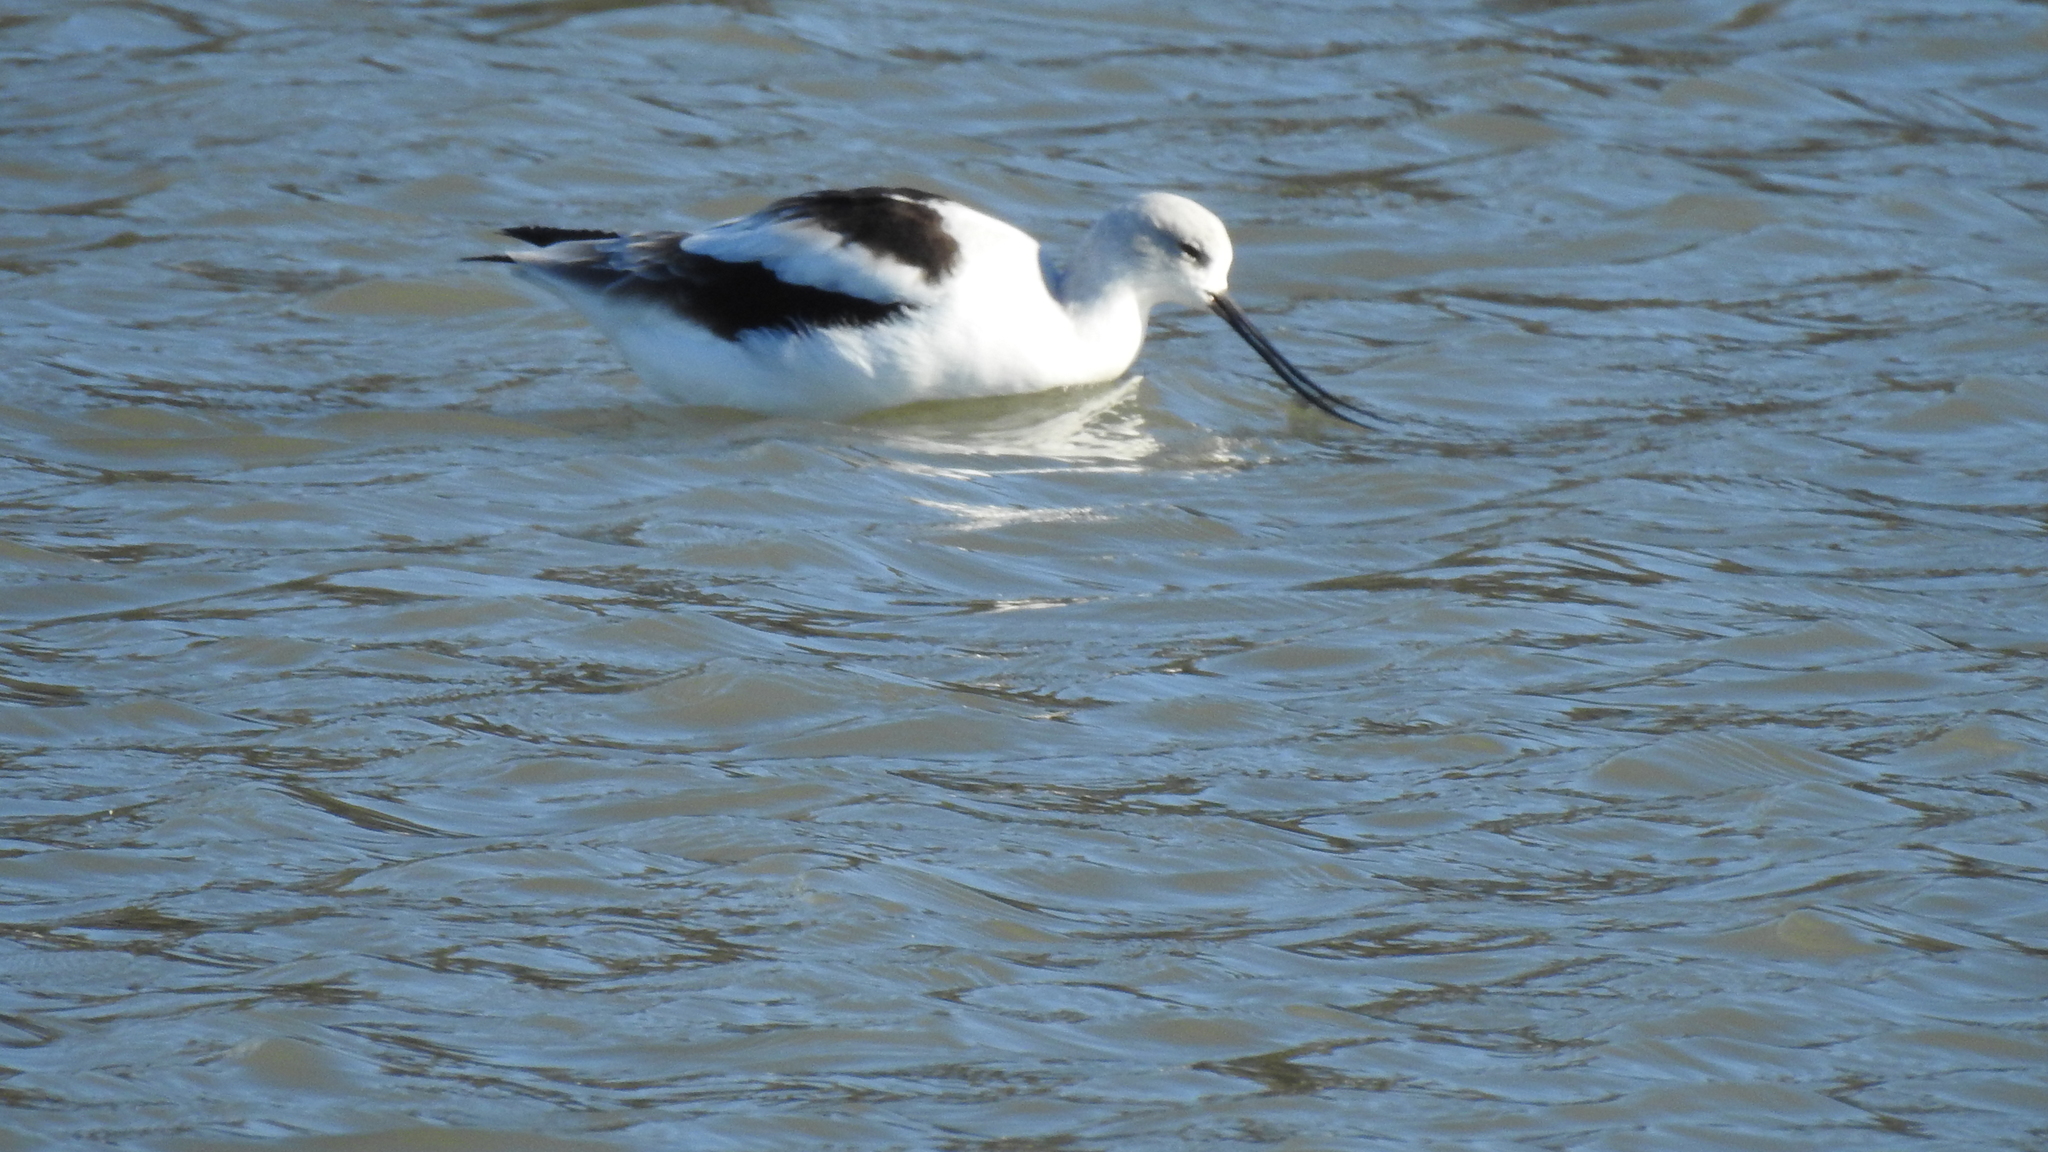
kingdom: Animalia
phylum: Chordata
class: Aves
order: Charadriiformes
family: Recurvirostridae
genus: Recurvirostra
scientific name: Recurvirostra americana
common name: American avocet
